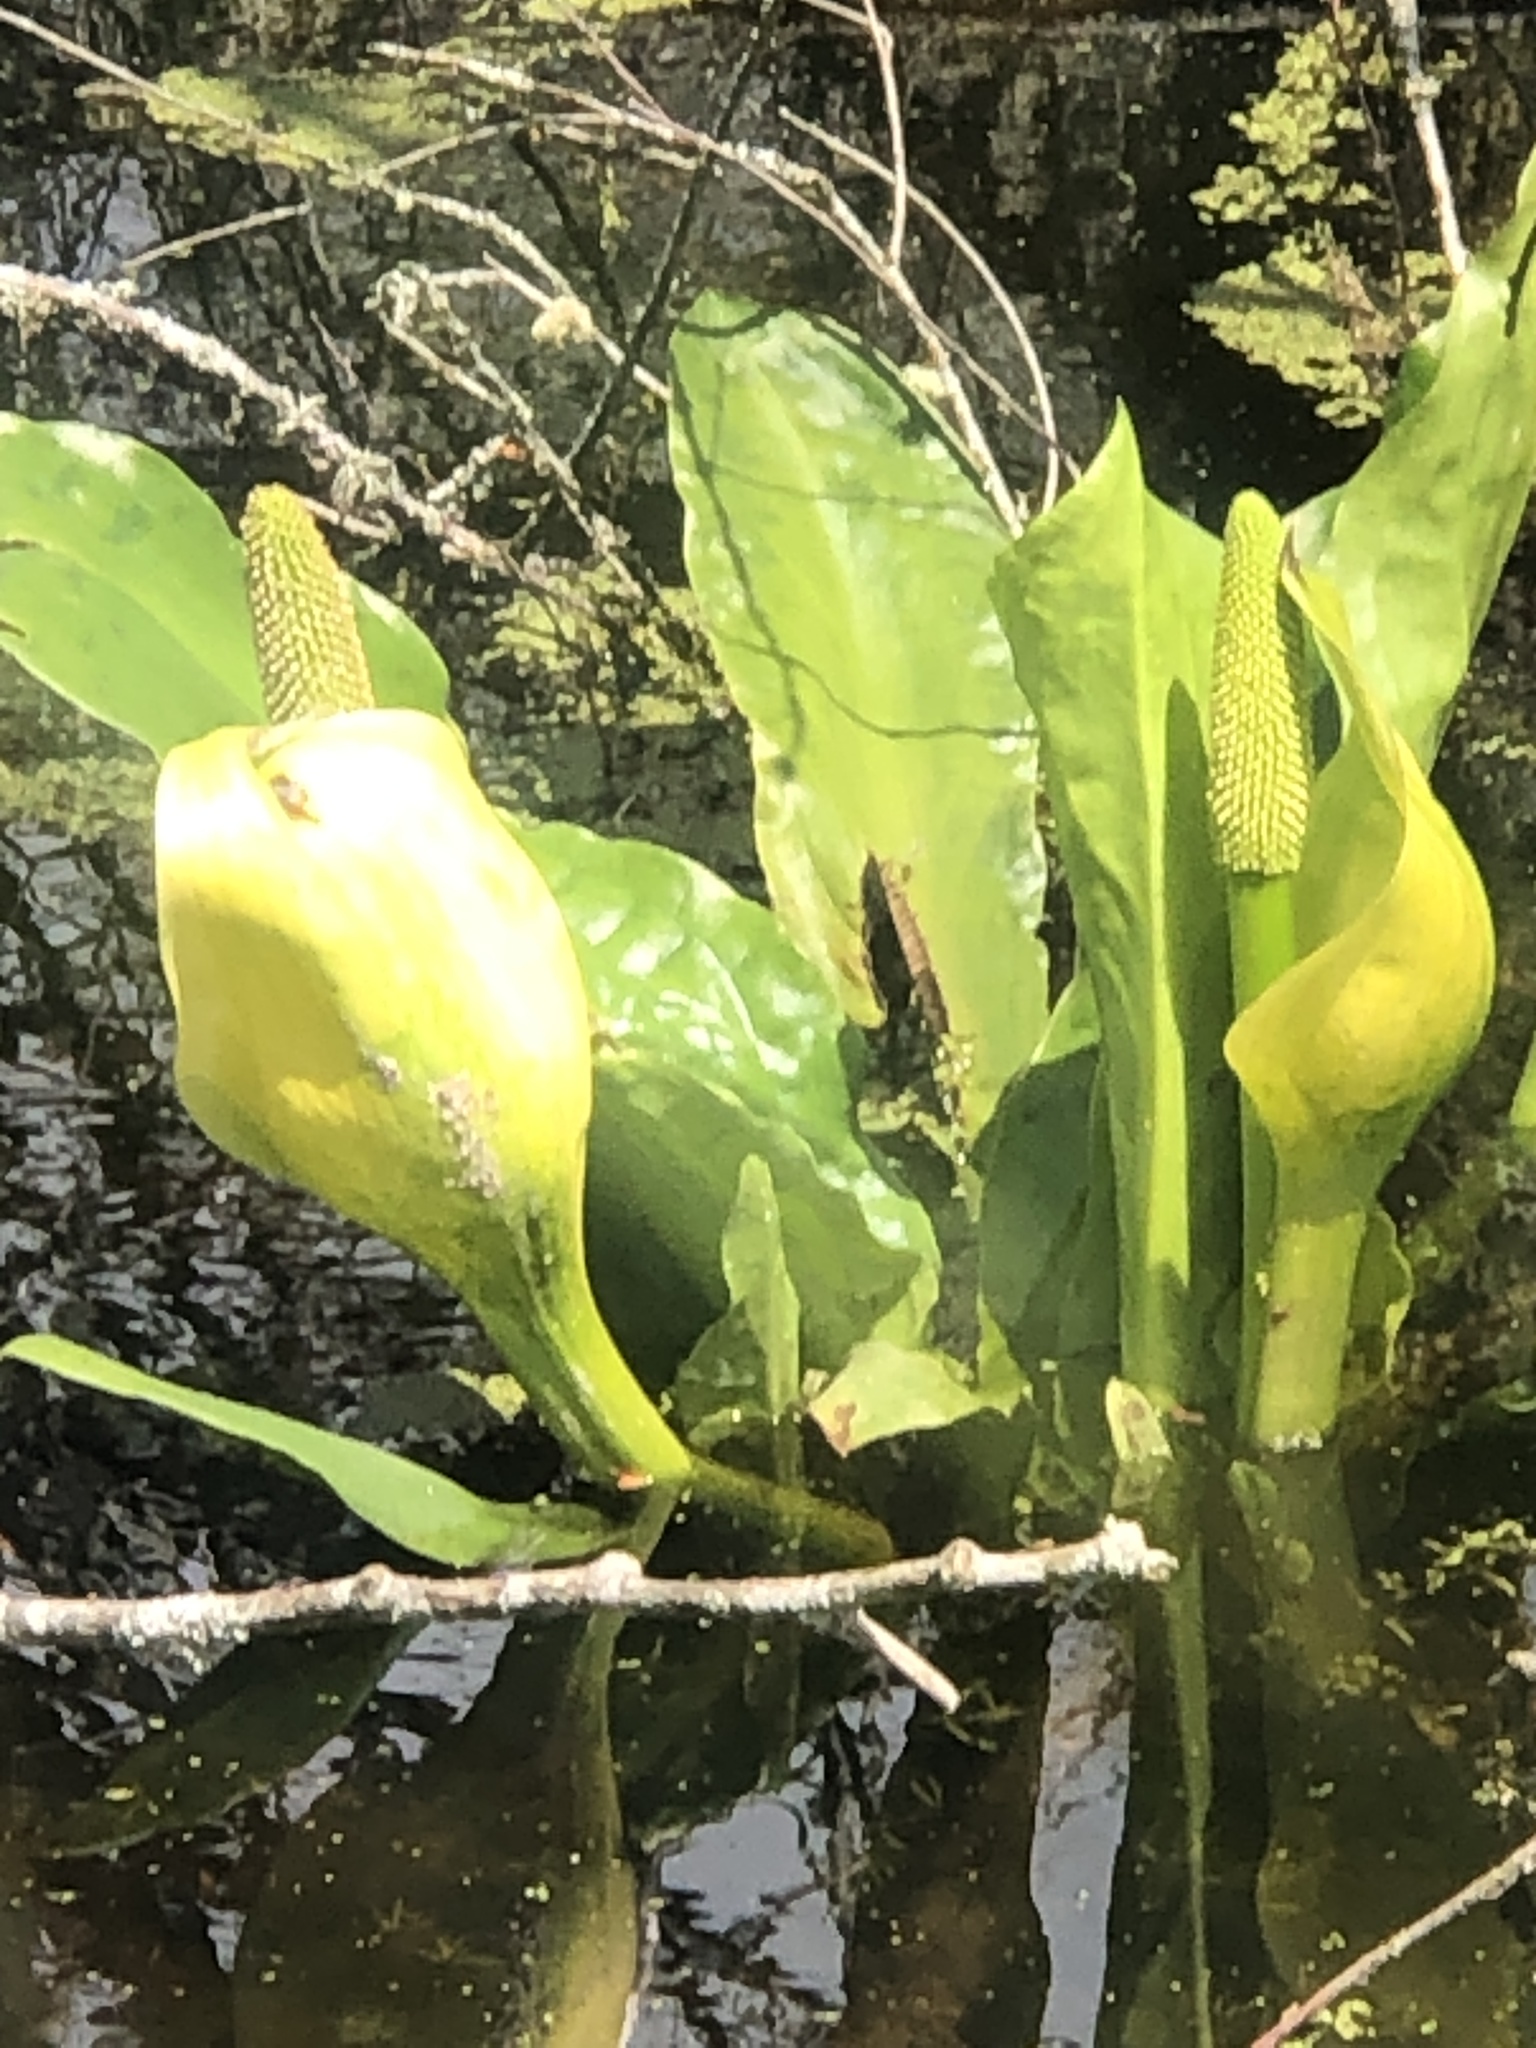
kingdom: Plantae
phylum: Tracheophyta
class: Liliopsida
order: Alismatales
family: Araceae
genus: Lysichiton
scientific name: Lysichiton americanus
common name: American skunk cabbage
